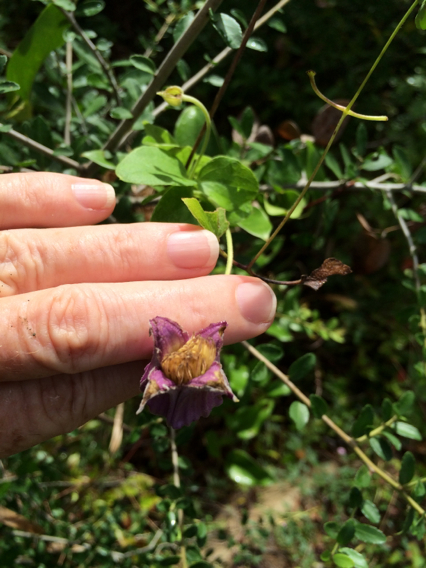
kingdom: Plantae
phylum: Tracheophyta
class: Magnoliopsida
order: Ranunculales
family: Ranunculaceae
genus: Clematis
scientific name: Clematis
